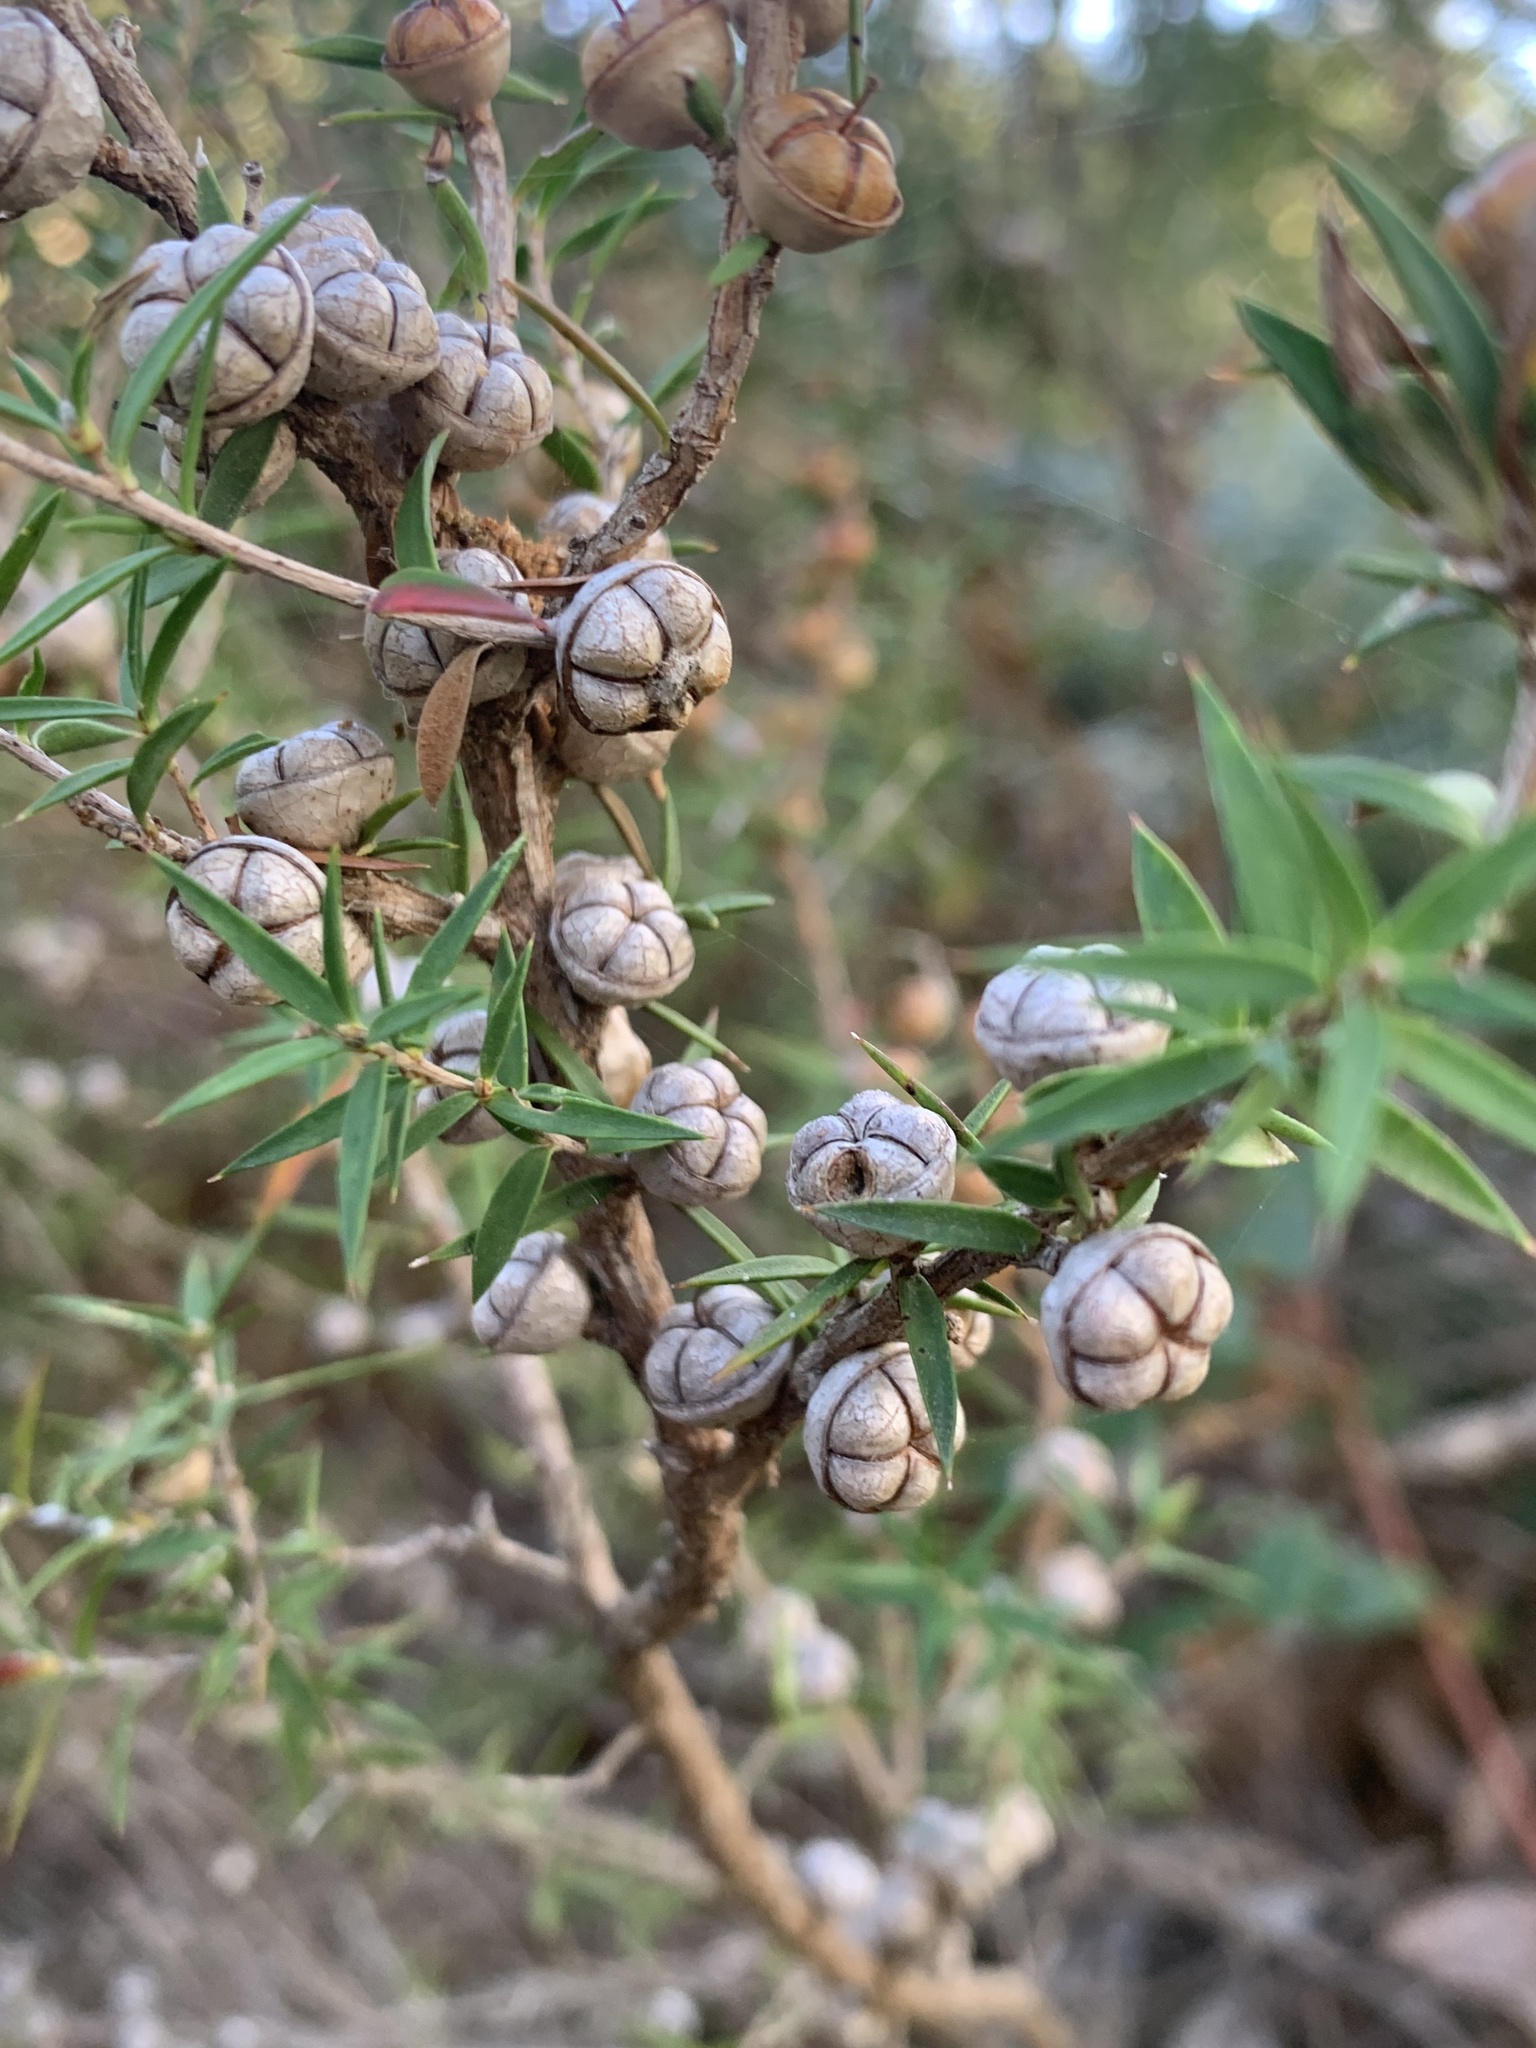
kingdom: Plantae
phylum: Tracheophyta
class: Magnoliopsida
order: Myrtales
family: Myrtaceae
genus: Leptospermum
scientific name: Leptospermum scoparium
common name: Broom tea-tree
